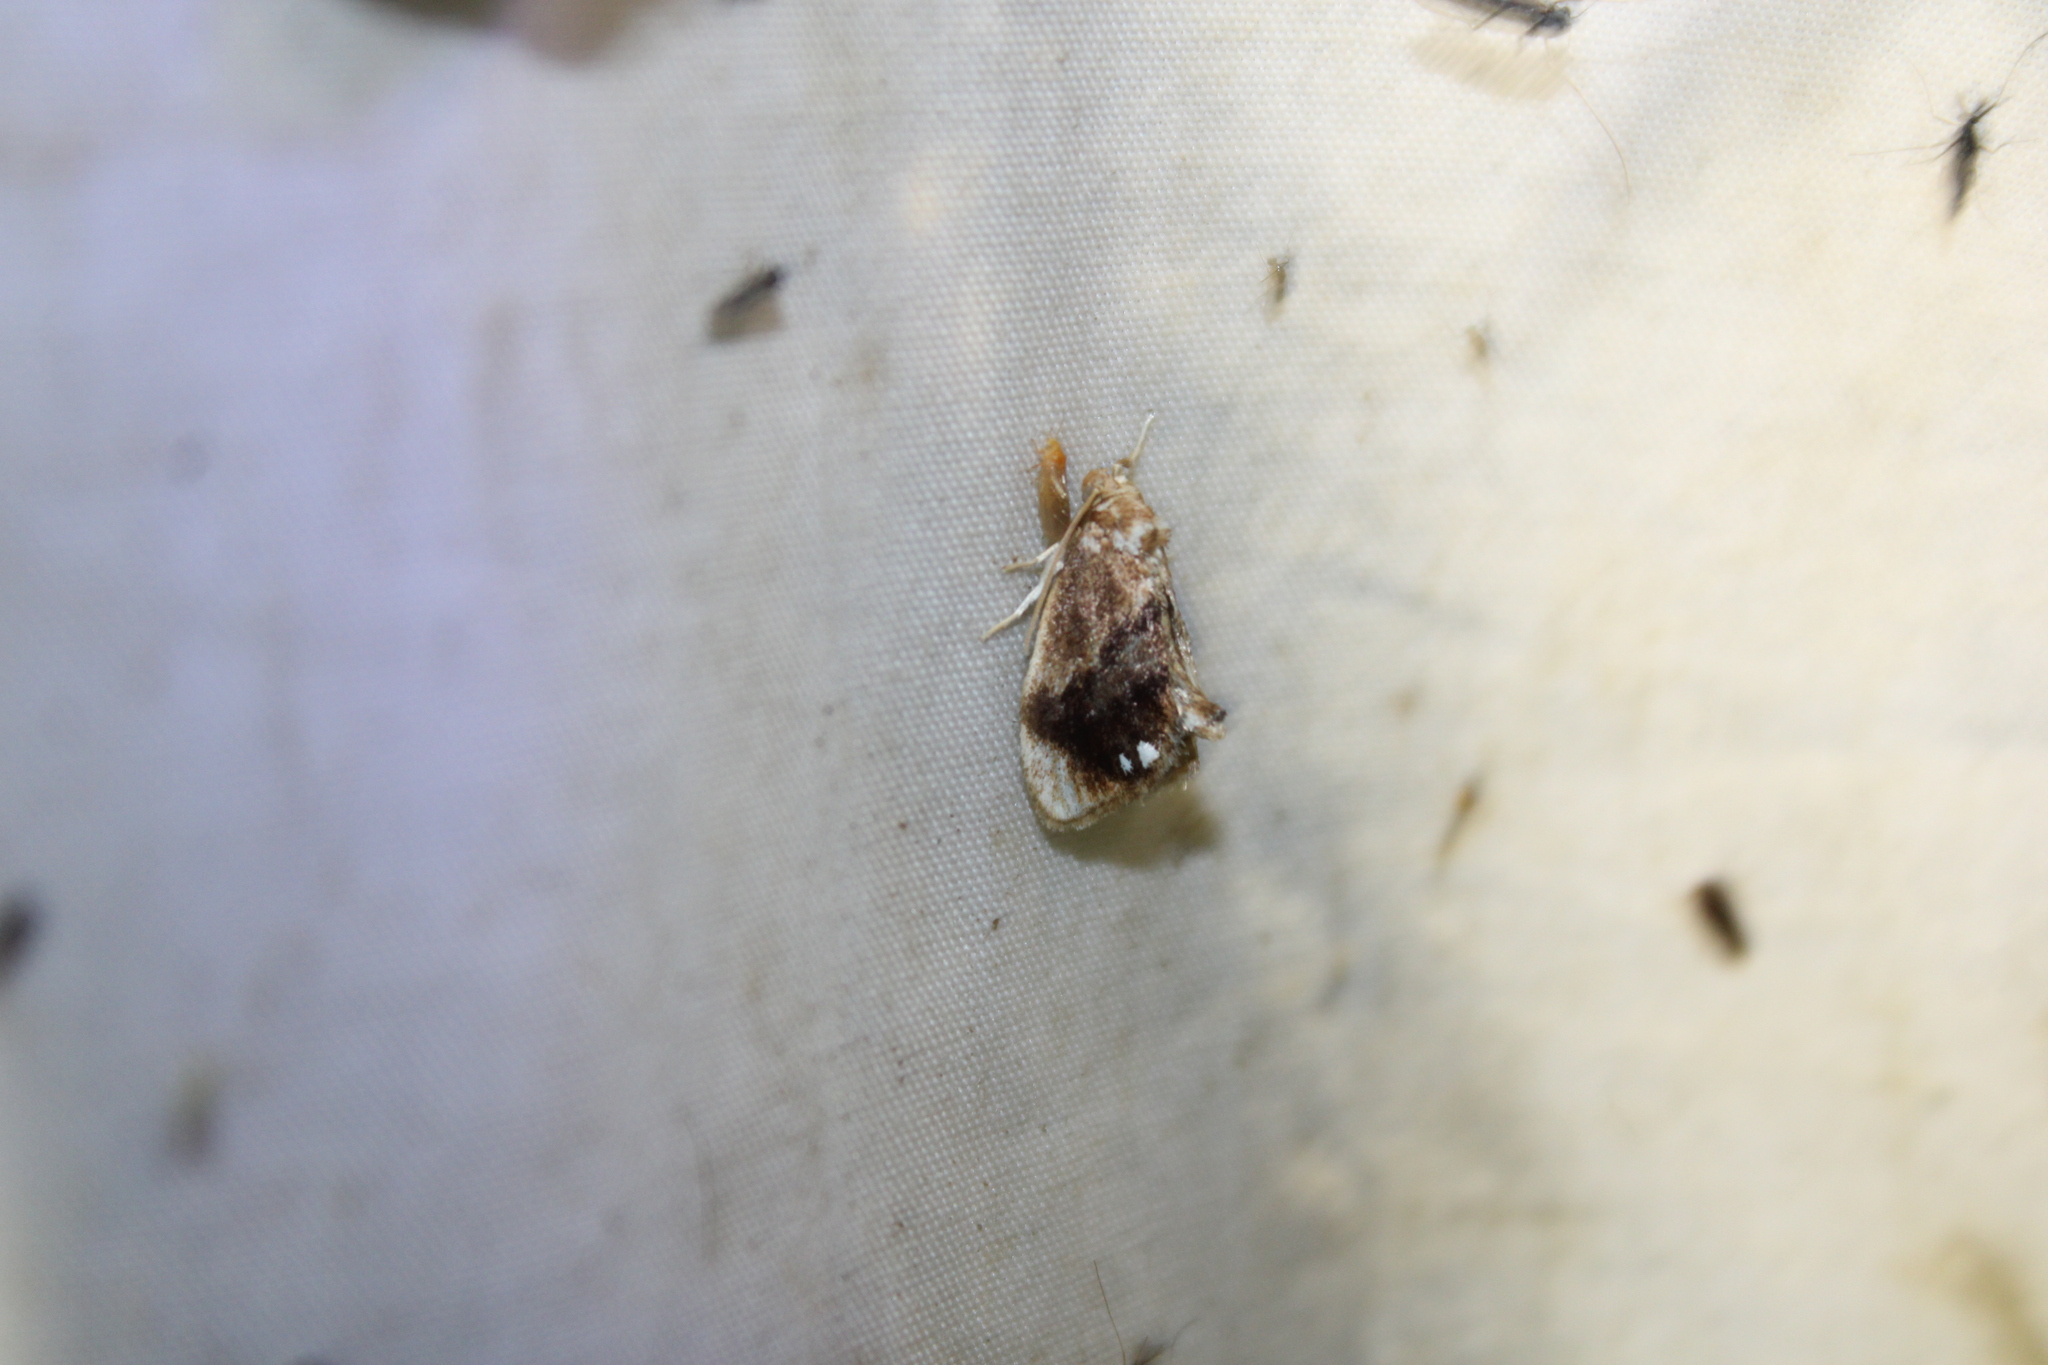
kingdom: Animalia
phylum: Arthropoda
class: Insecta
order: Lepidoptera
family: Limacodidae
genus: Packardia
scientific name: Packardia geminata
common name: Jeweled tailed slug moth
